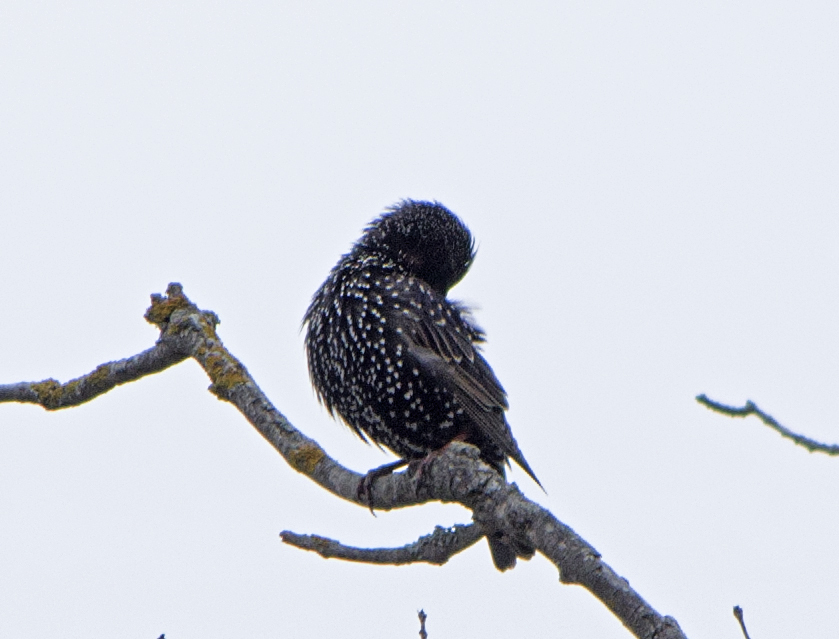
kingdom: Animalia
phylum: Chordata
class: Aves
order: Passeriformes
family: Sturnidae
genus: Sturnus
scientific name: Sturnus vulgaris
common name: Common starling
